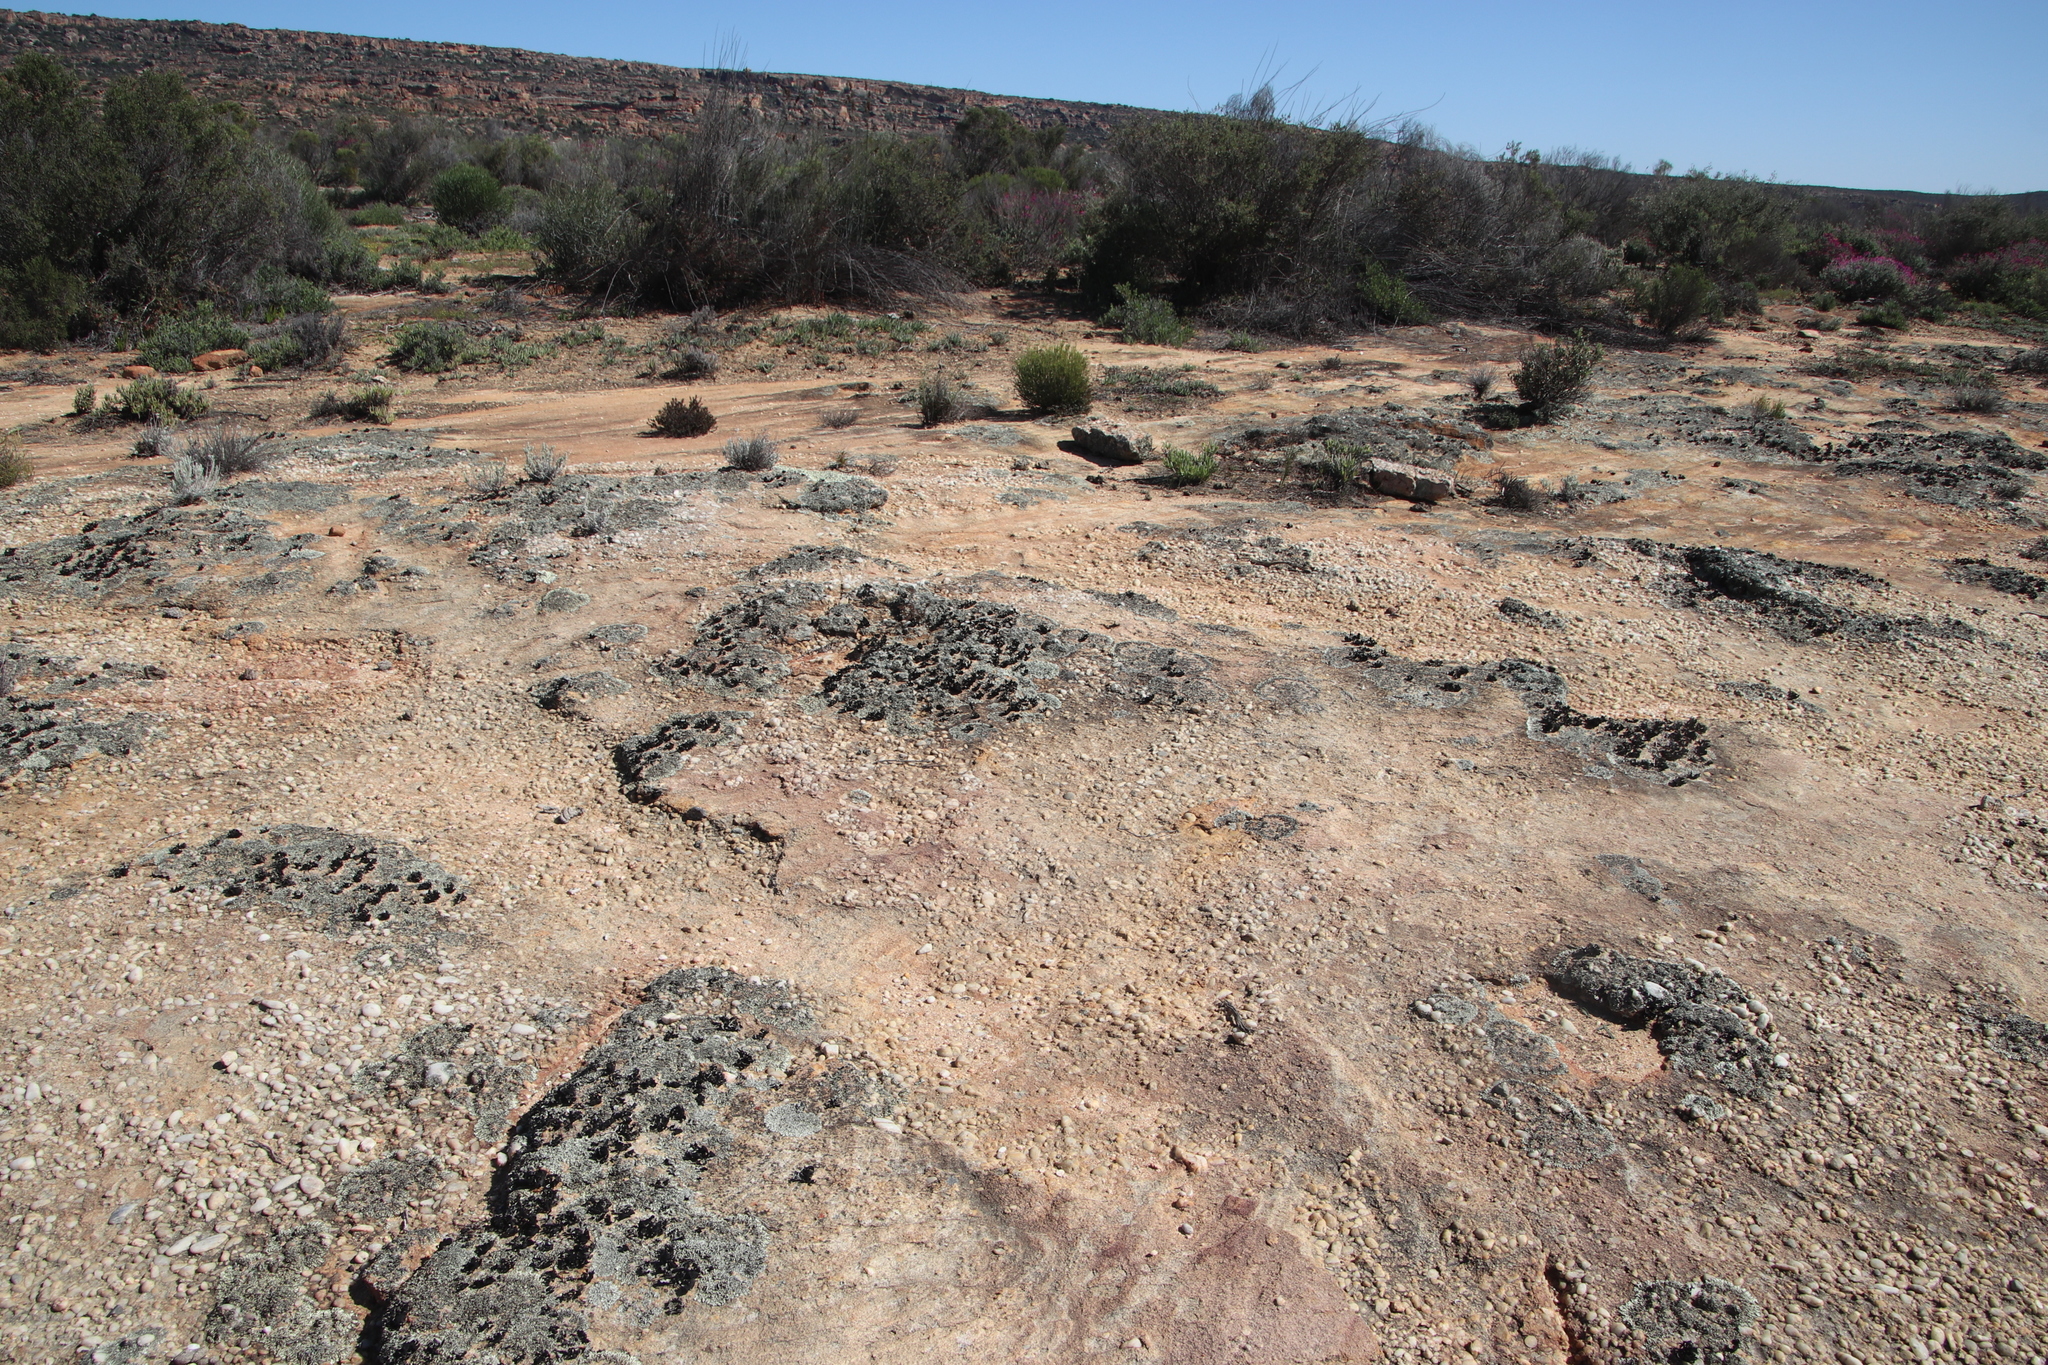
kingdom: Fungi
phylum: Ascomycota
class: Lecanoromycetes
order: Lecanorales
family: Parmeliaceae
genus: Xanthoparmelia
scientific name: Xanthoparmelia hottentotta
